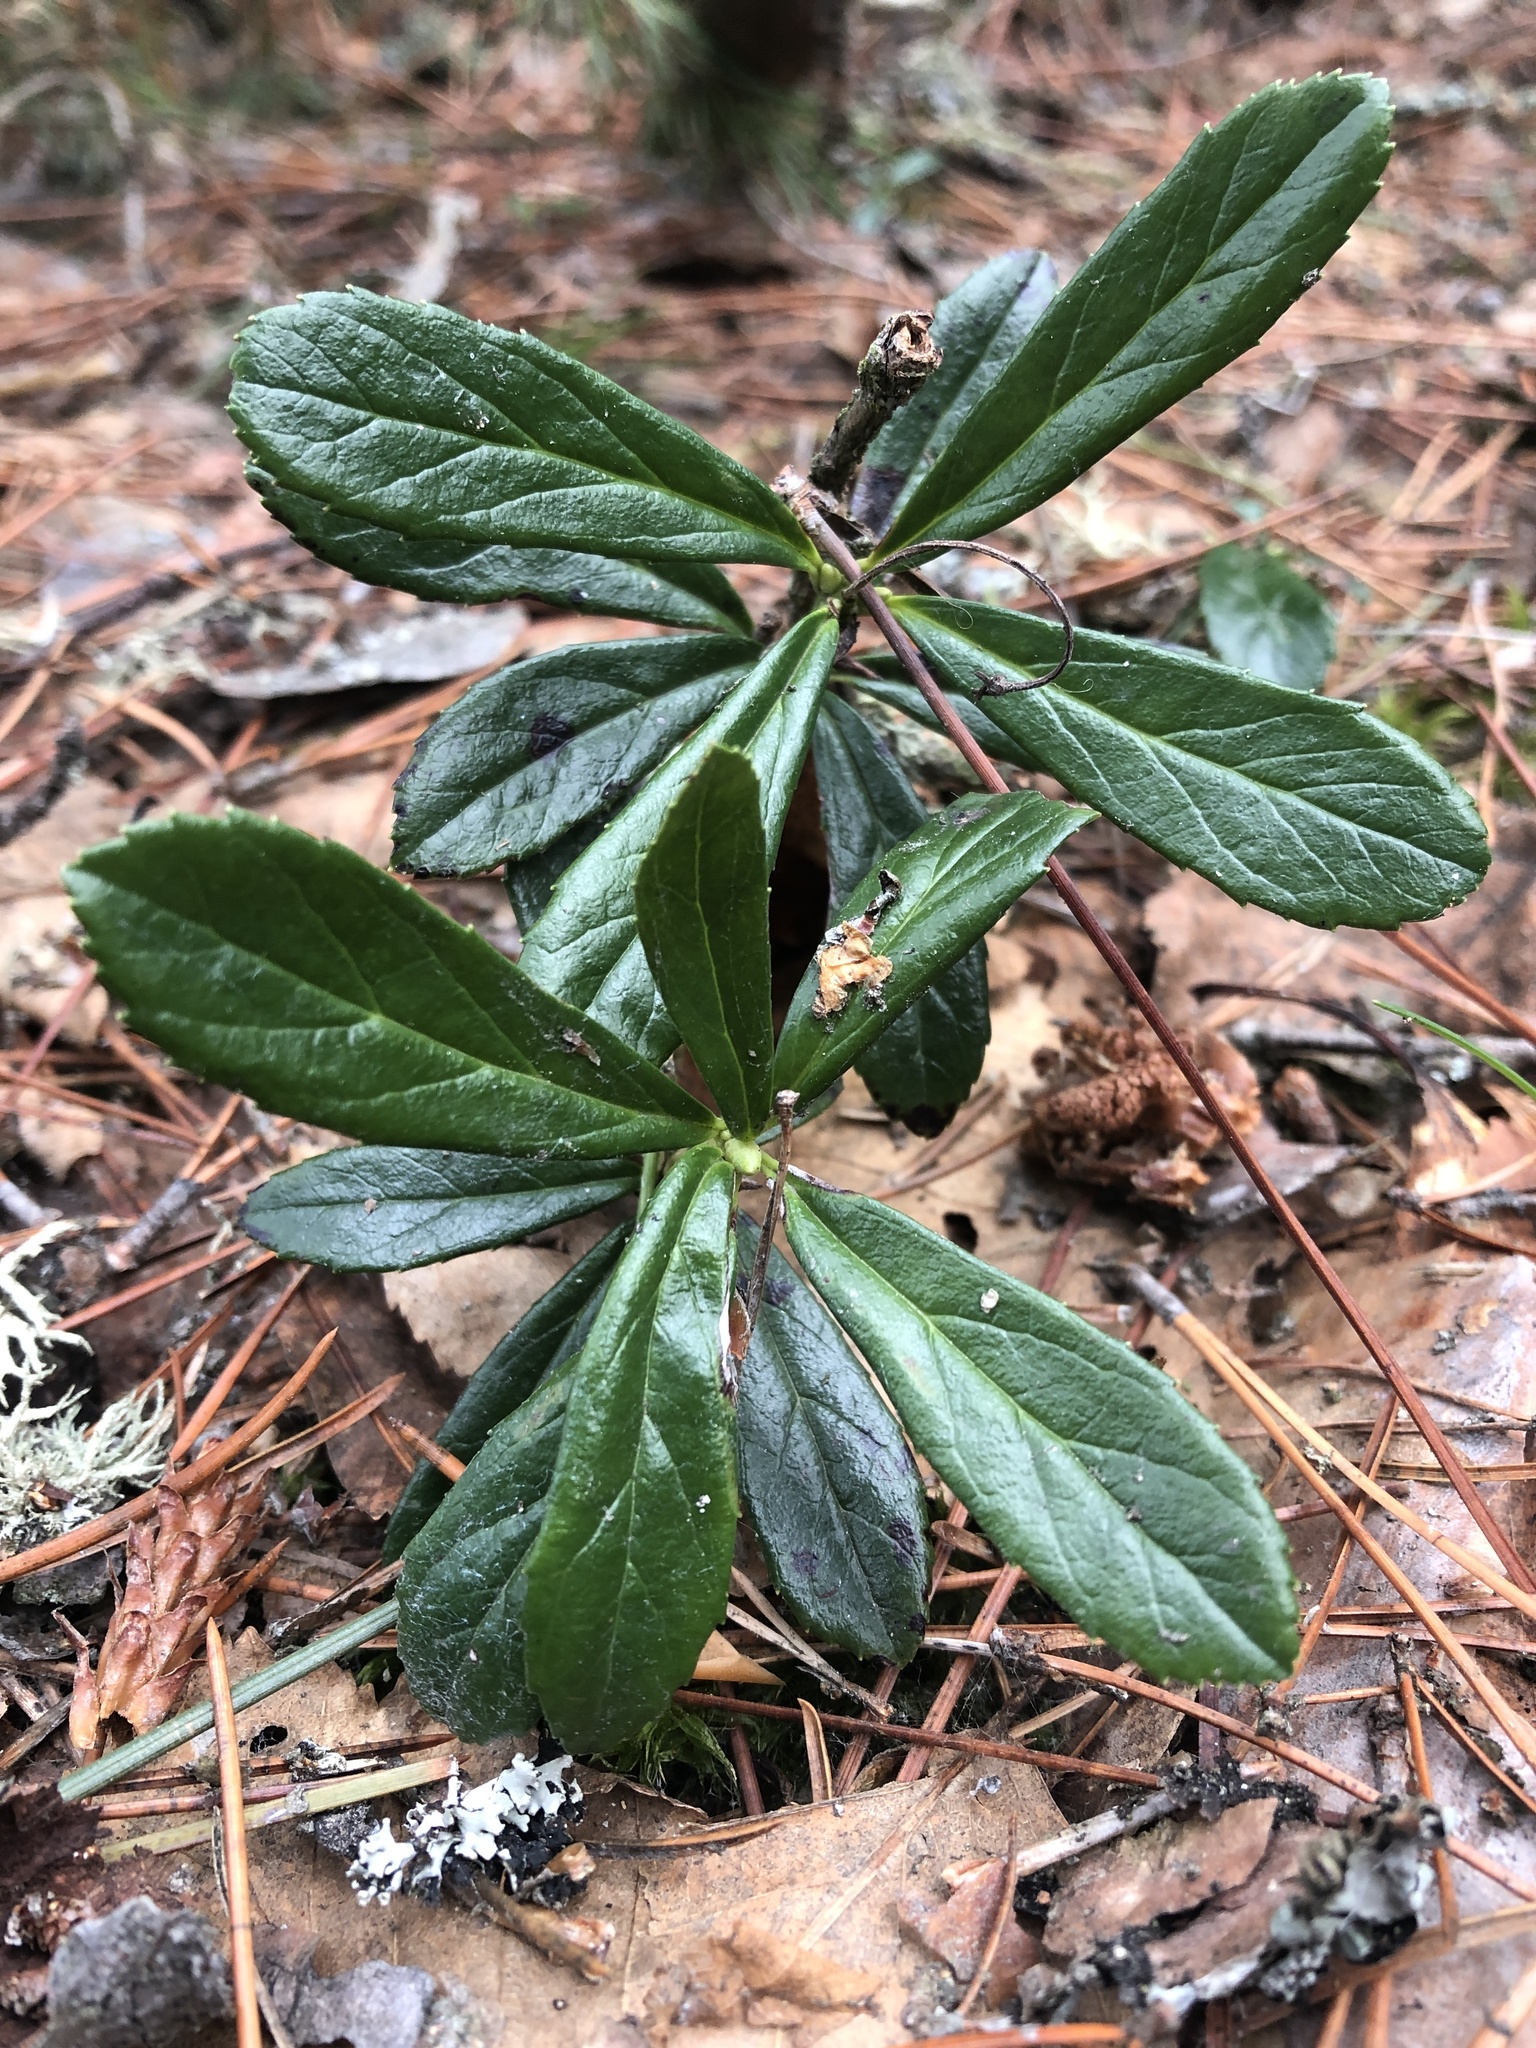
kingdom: Plantae
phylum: Tracheophyta
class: Magnoliopsida
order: Ericales
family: Ericaceae
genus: Chimaphila
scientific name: Chimaphila umbellata
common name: Pipsissewa
